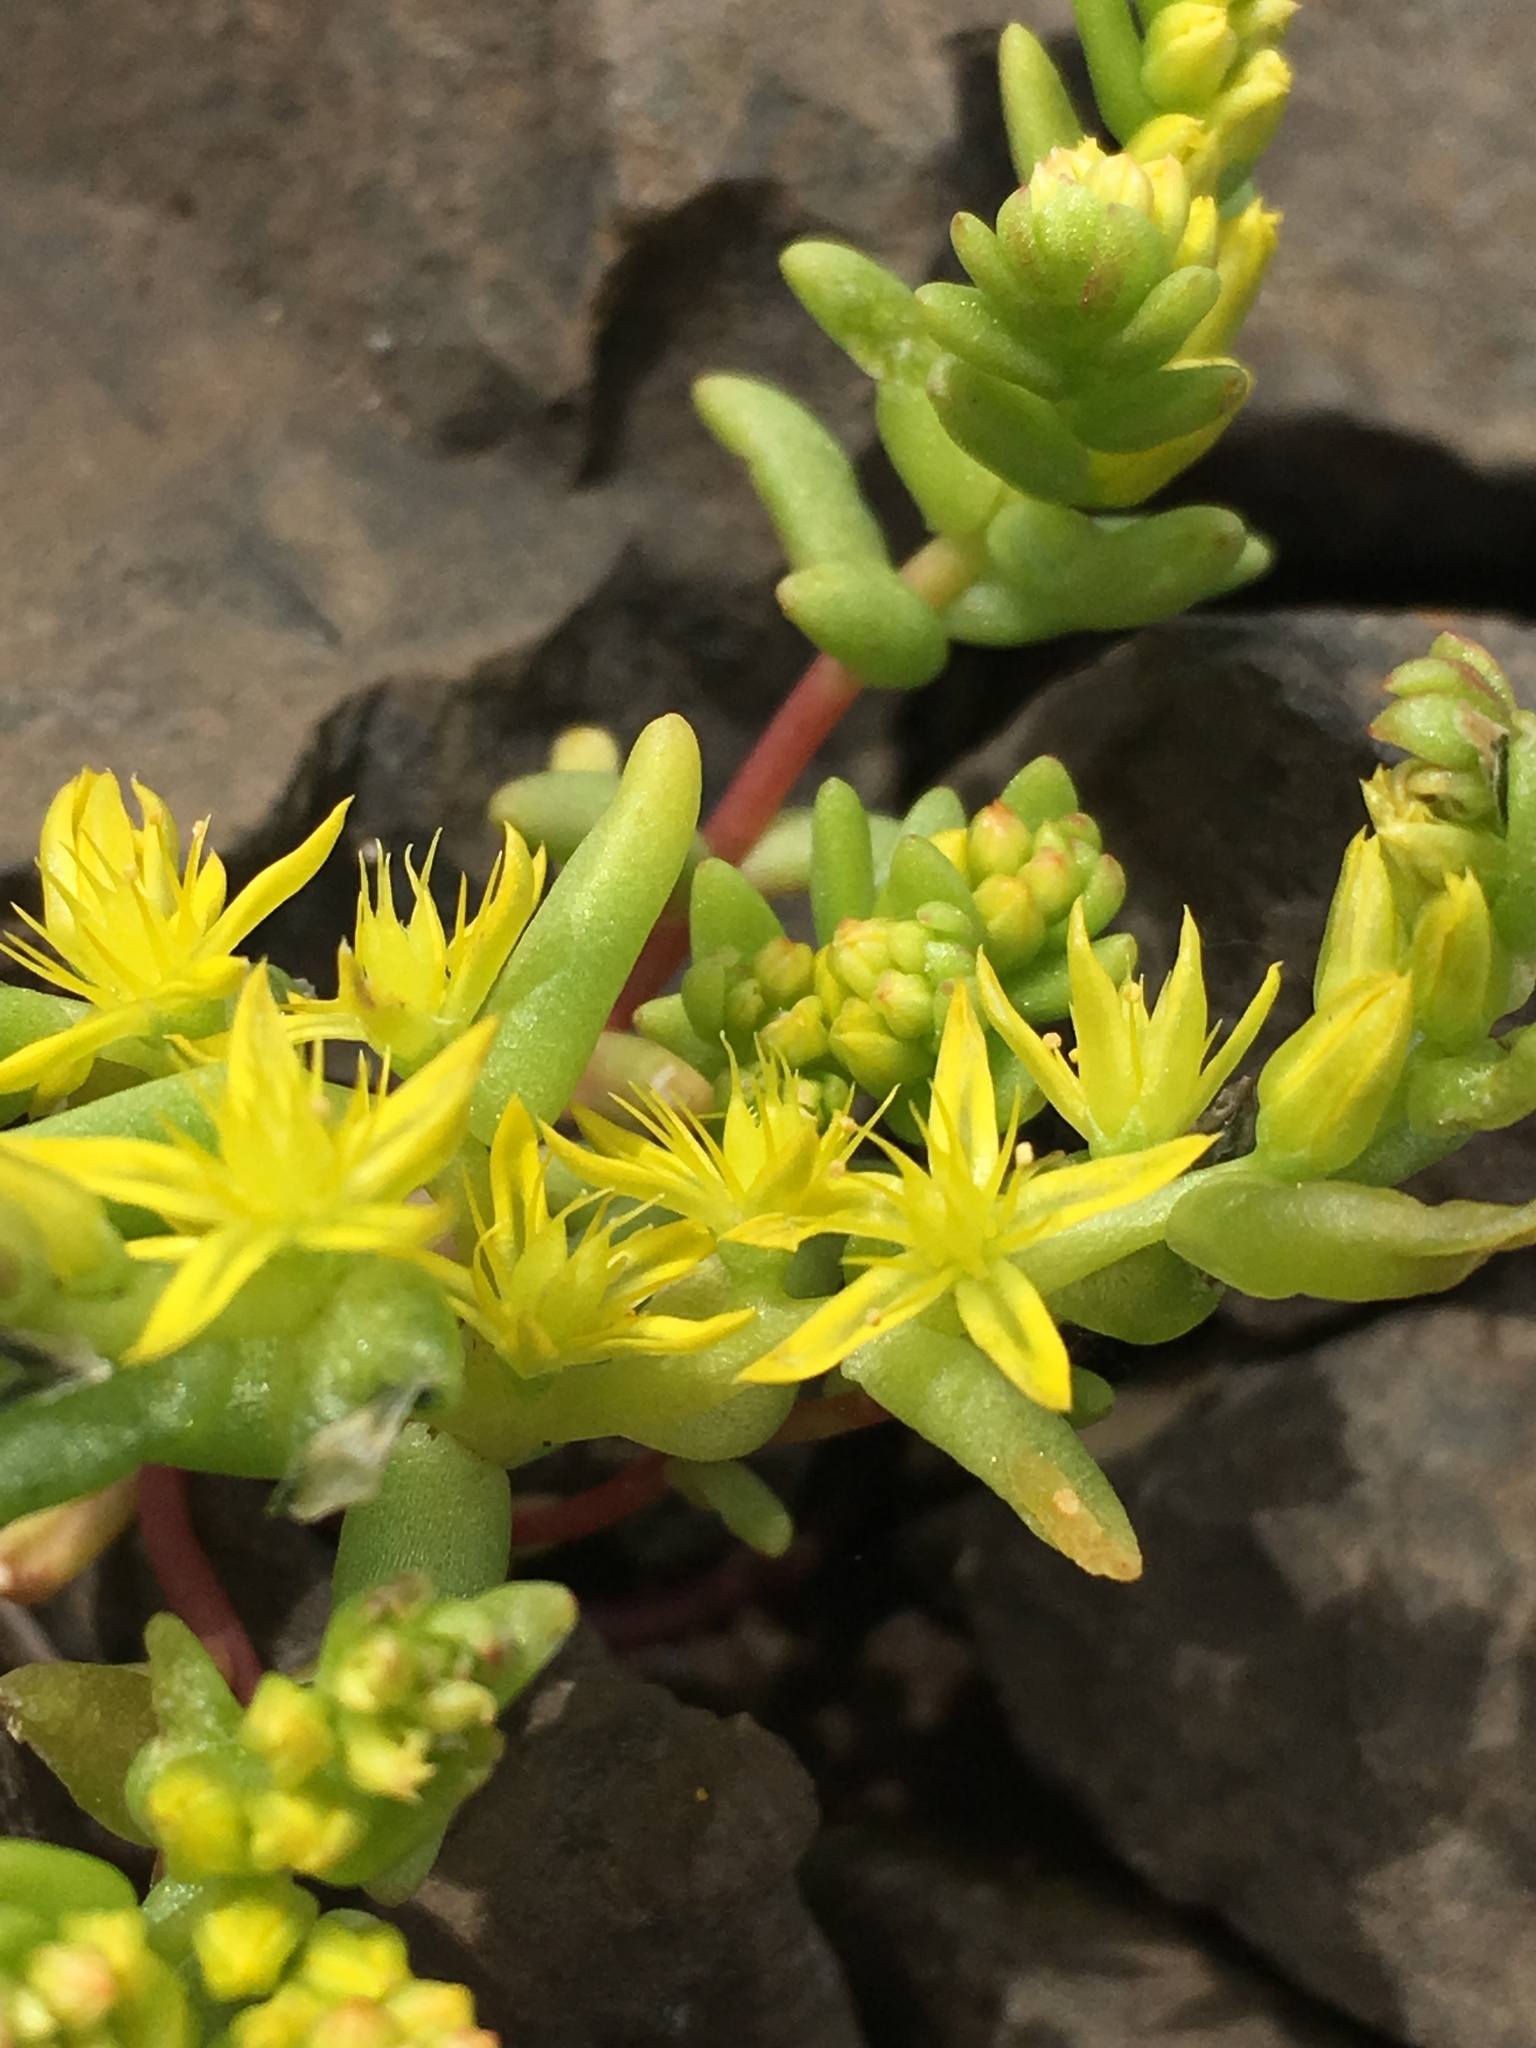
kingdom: Plantae
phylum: Tracheophyta
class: Magnoliopsida
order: Saxifragales
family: Crassulaceae
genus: Sedella
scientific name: Sedella pumila
